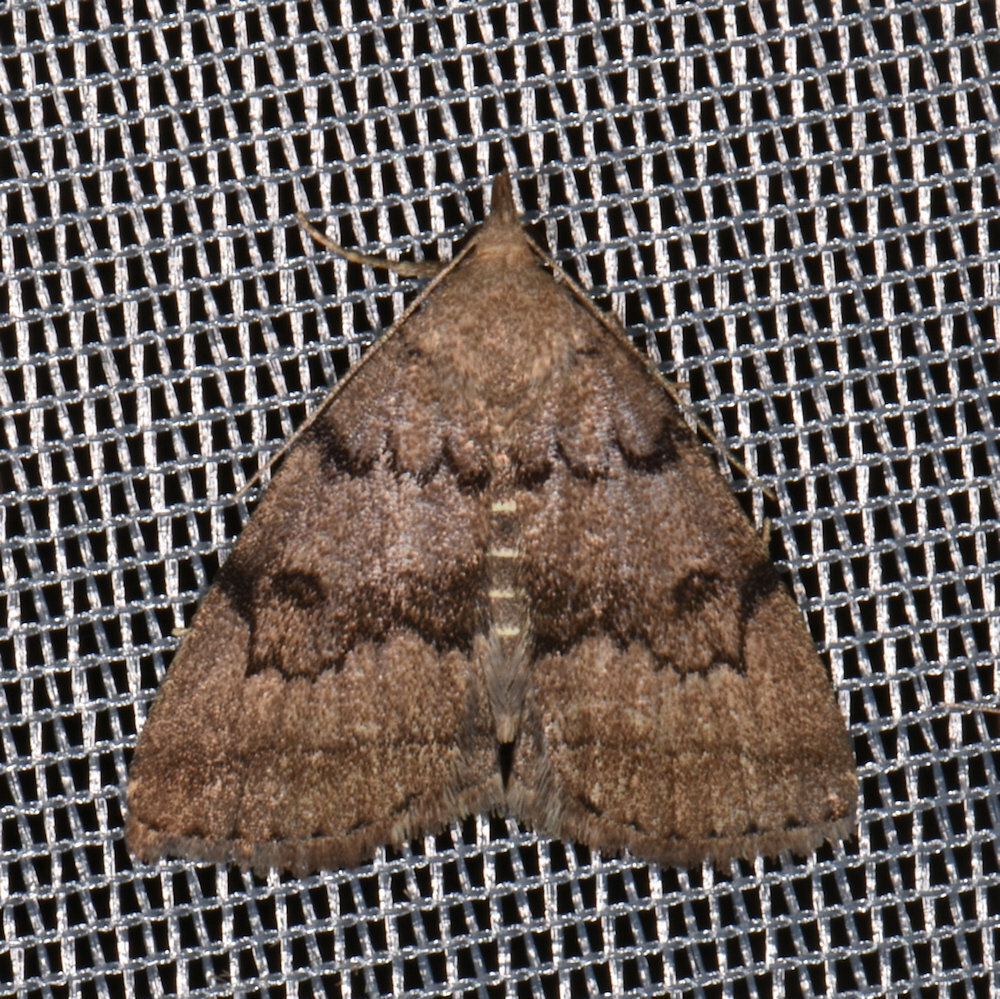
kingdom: Animalia
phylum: Arthropoda
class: Insecta
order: Lepidoptera
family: Erebidae
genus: Zanclognatha
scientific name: Zanclognatha dentata
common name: Toothed fan-foot
